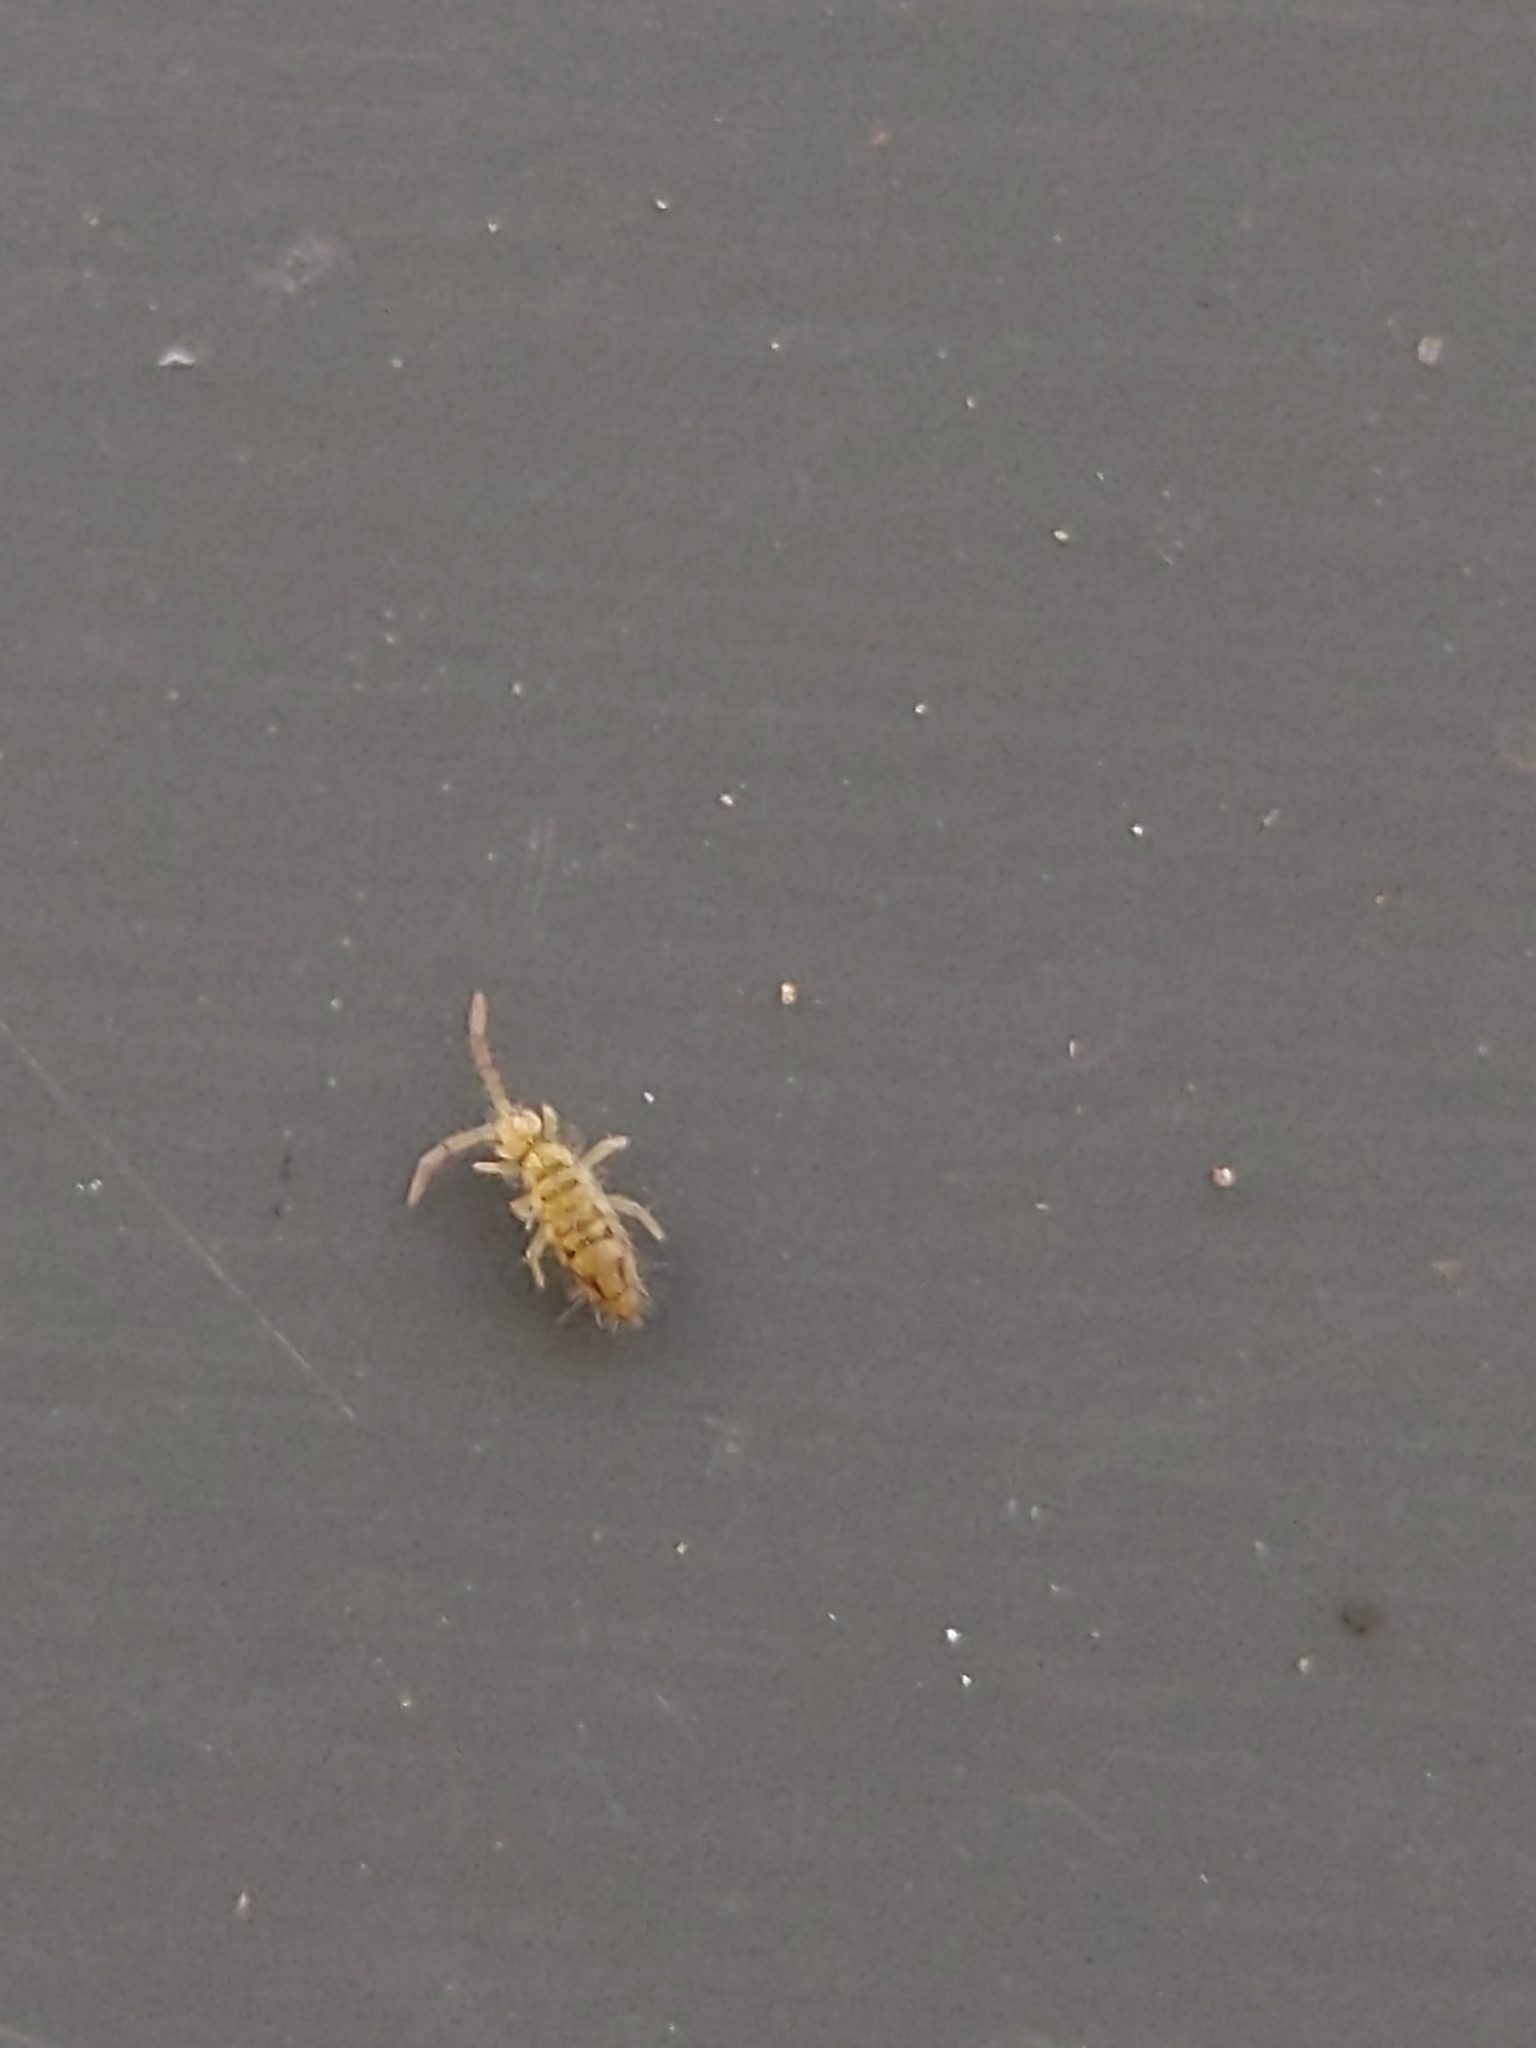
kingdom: Animalia
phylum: Arthropoda
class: Collembola
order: Entomobryomorpha
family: Entomobryidae
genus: Entomobrya
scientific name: Entomobrya nivalis
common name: Cosmopolitan springtail
